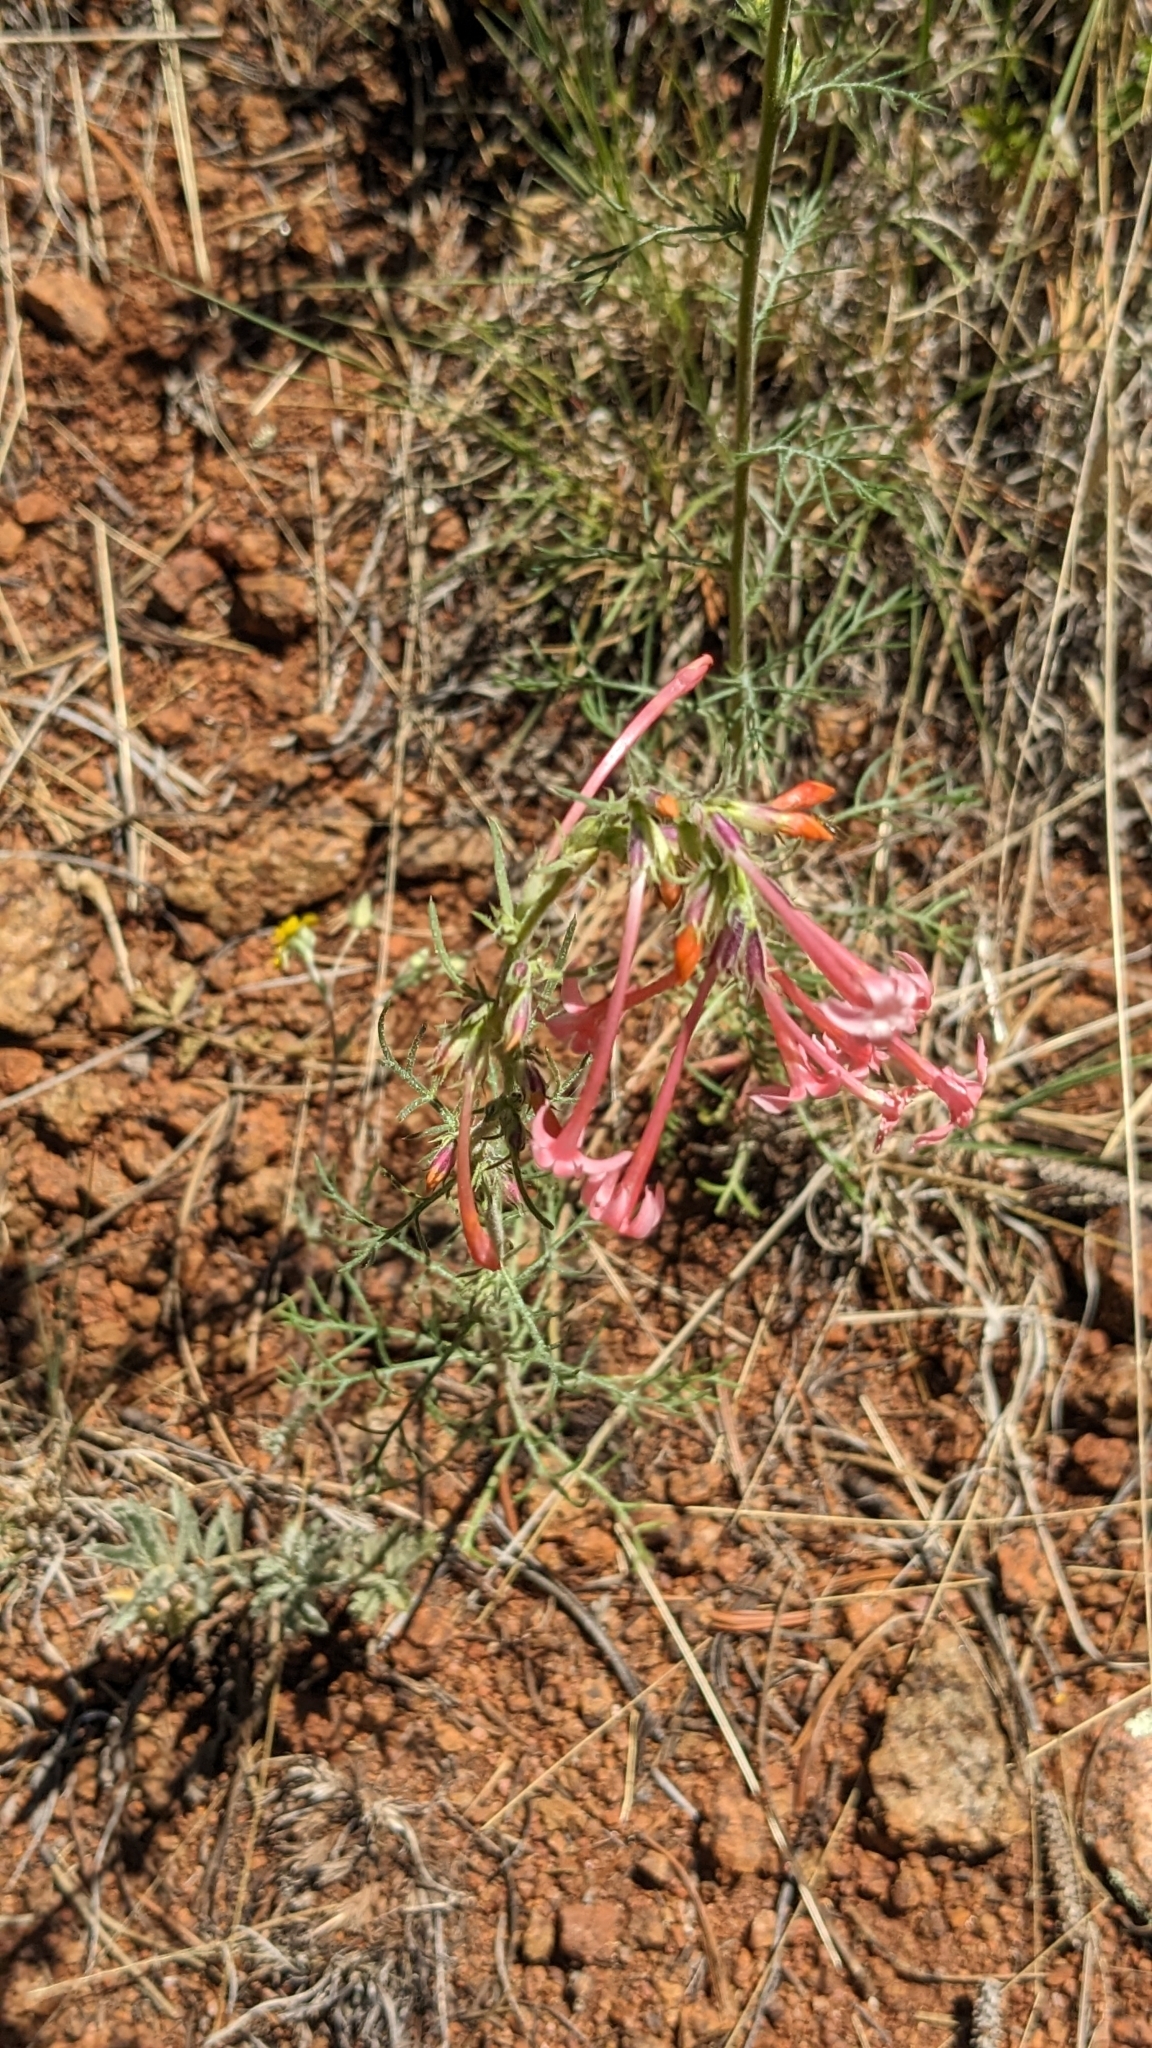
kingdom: Plantae
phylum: Tracheophyta
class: Magnoliopsida
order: Ericales
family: Polemoniaceae
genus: Ipomopsis
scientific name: Ipomopsis tenuituba
